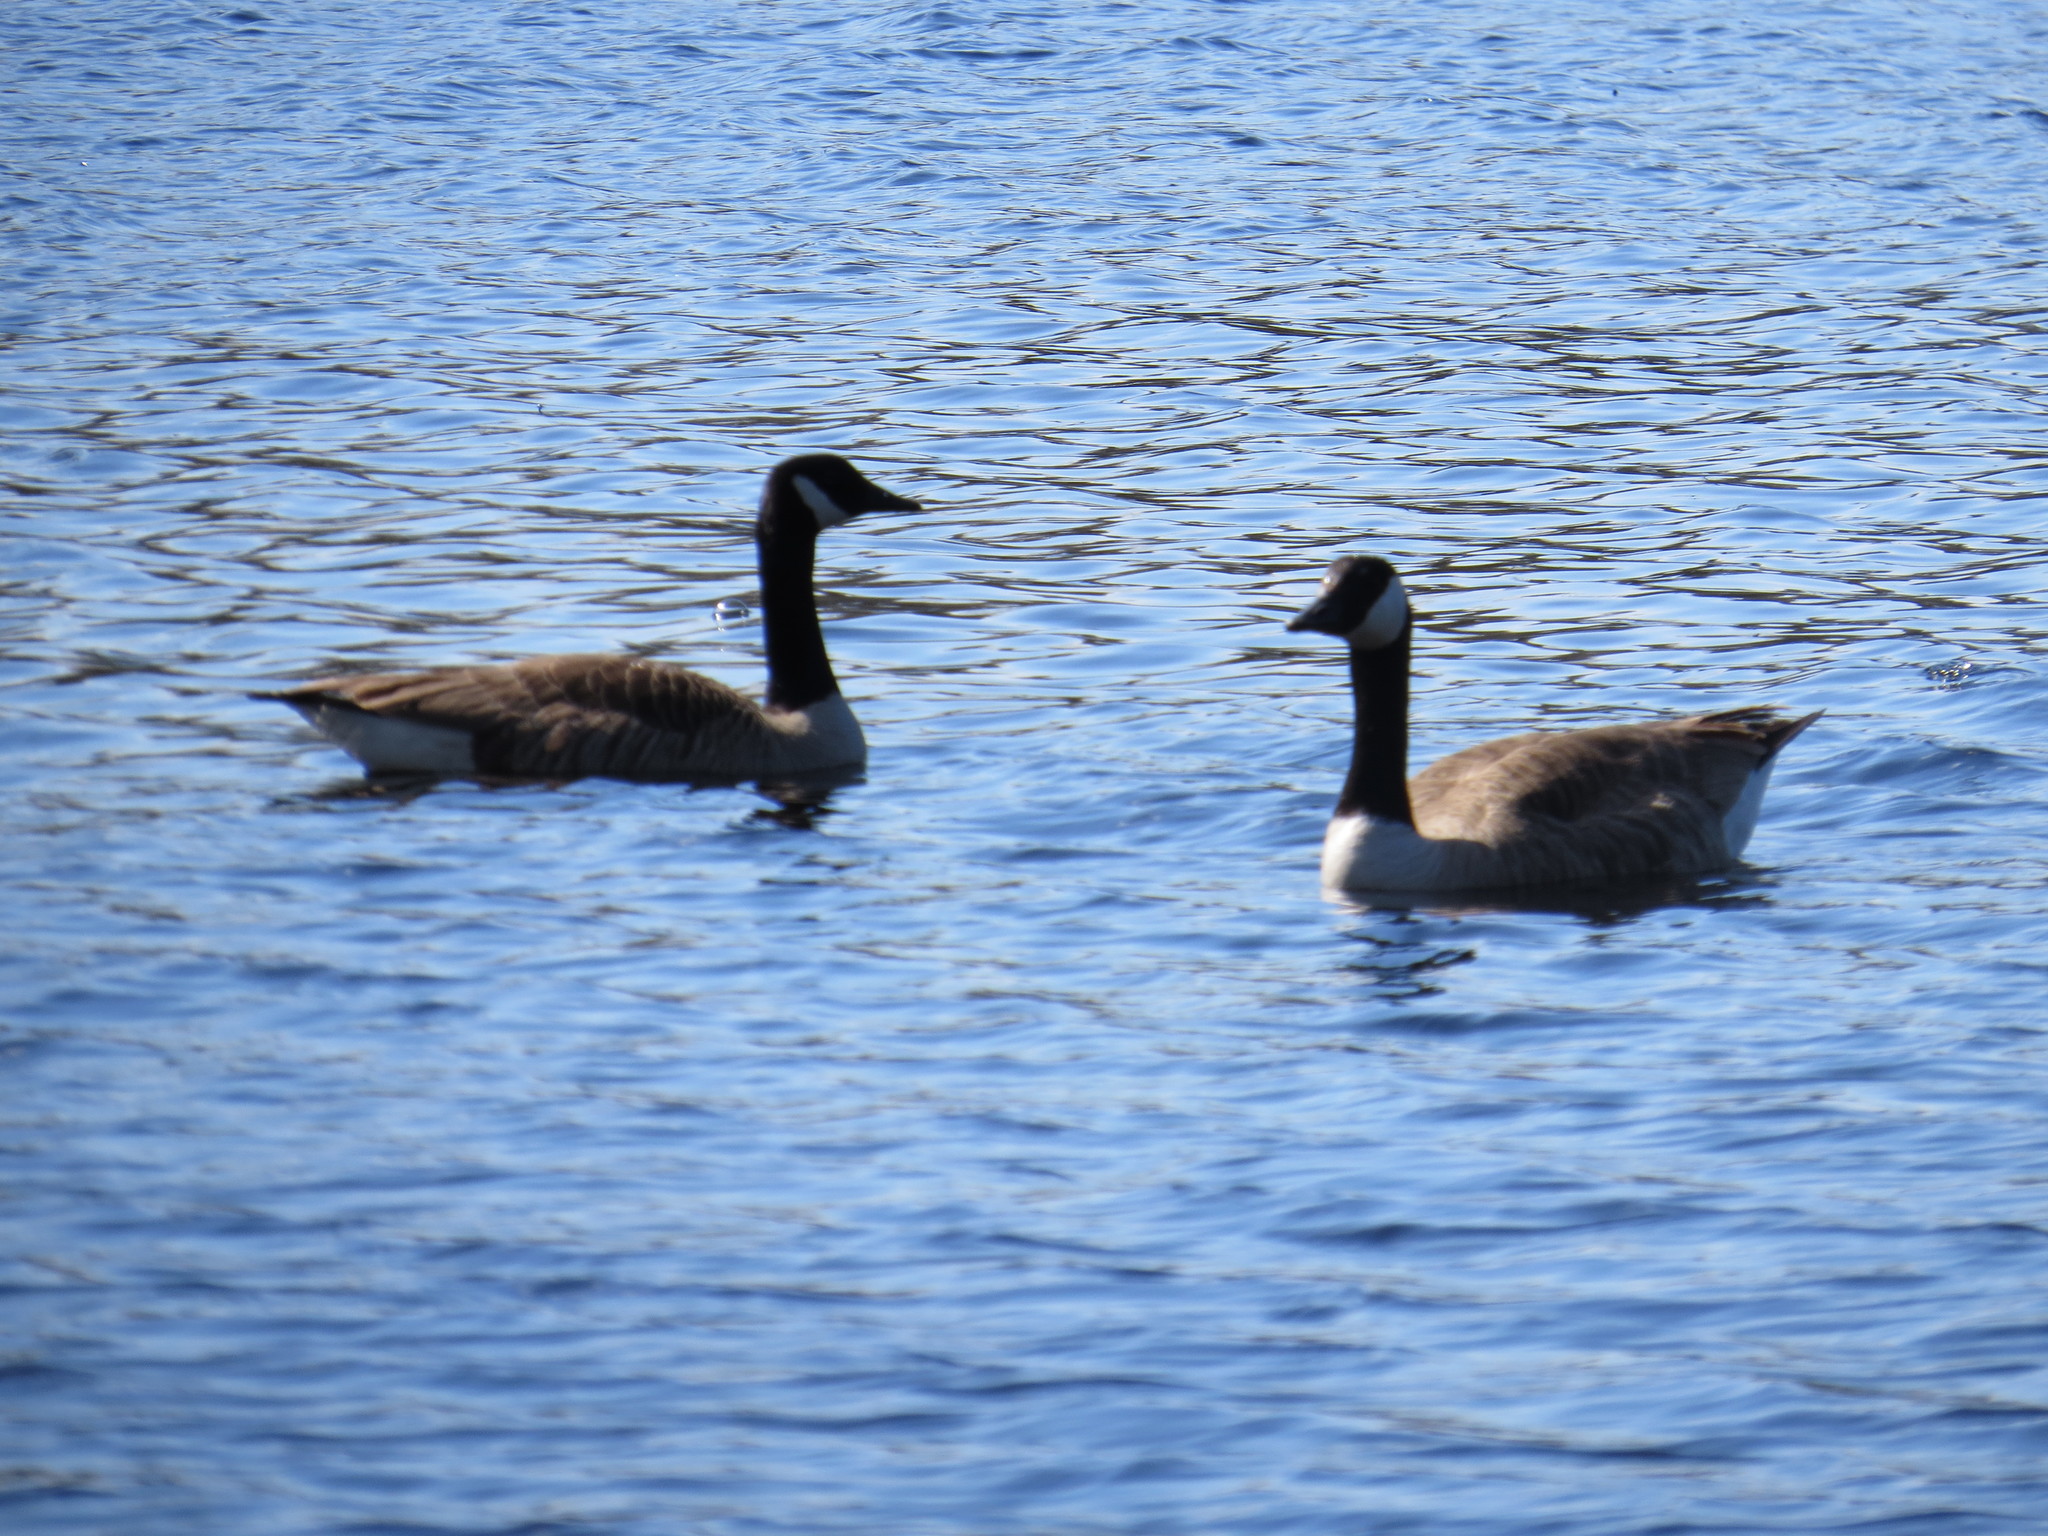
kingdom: Animalia
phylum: Chordata
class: Aves
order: Anseriformes
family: Anatidae
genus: Branta
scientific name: Branta canadensis
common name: Canada goose
